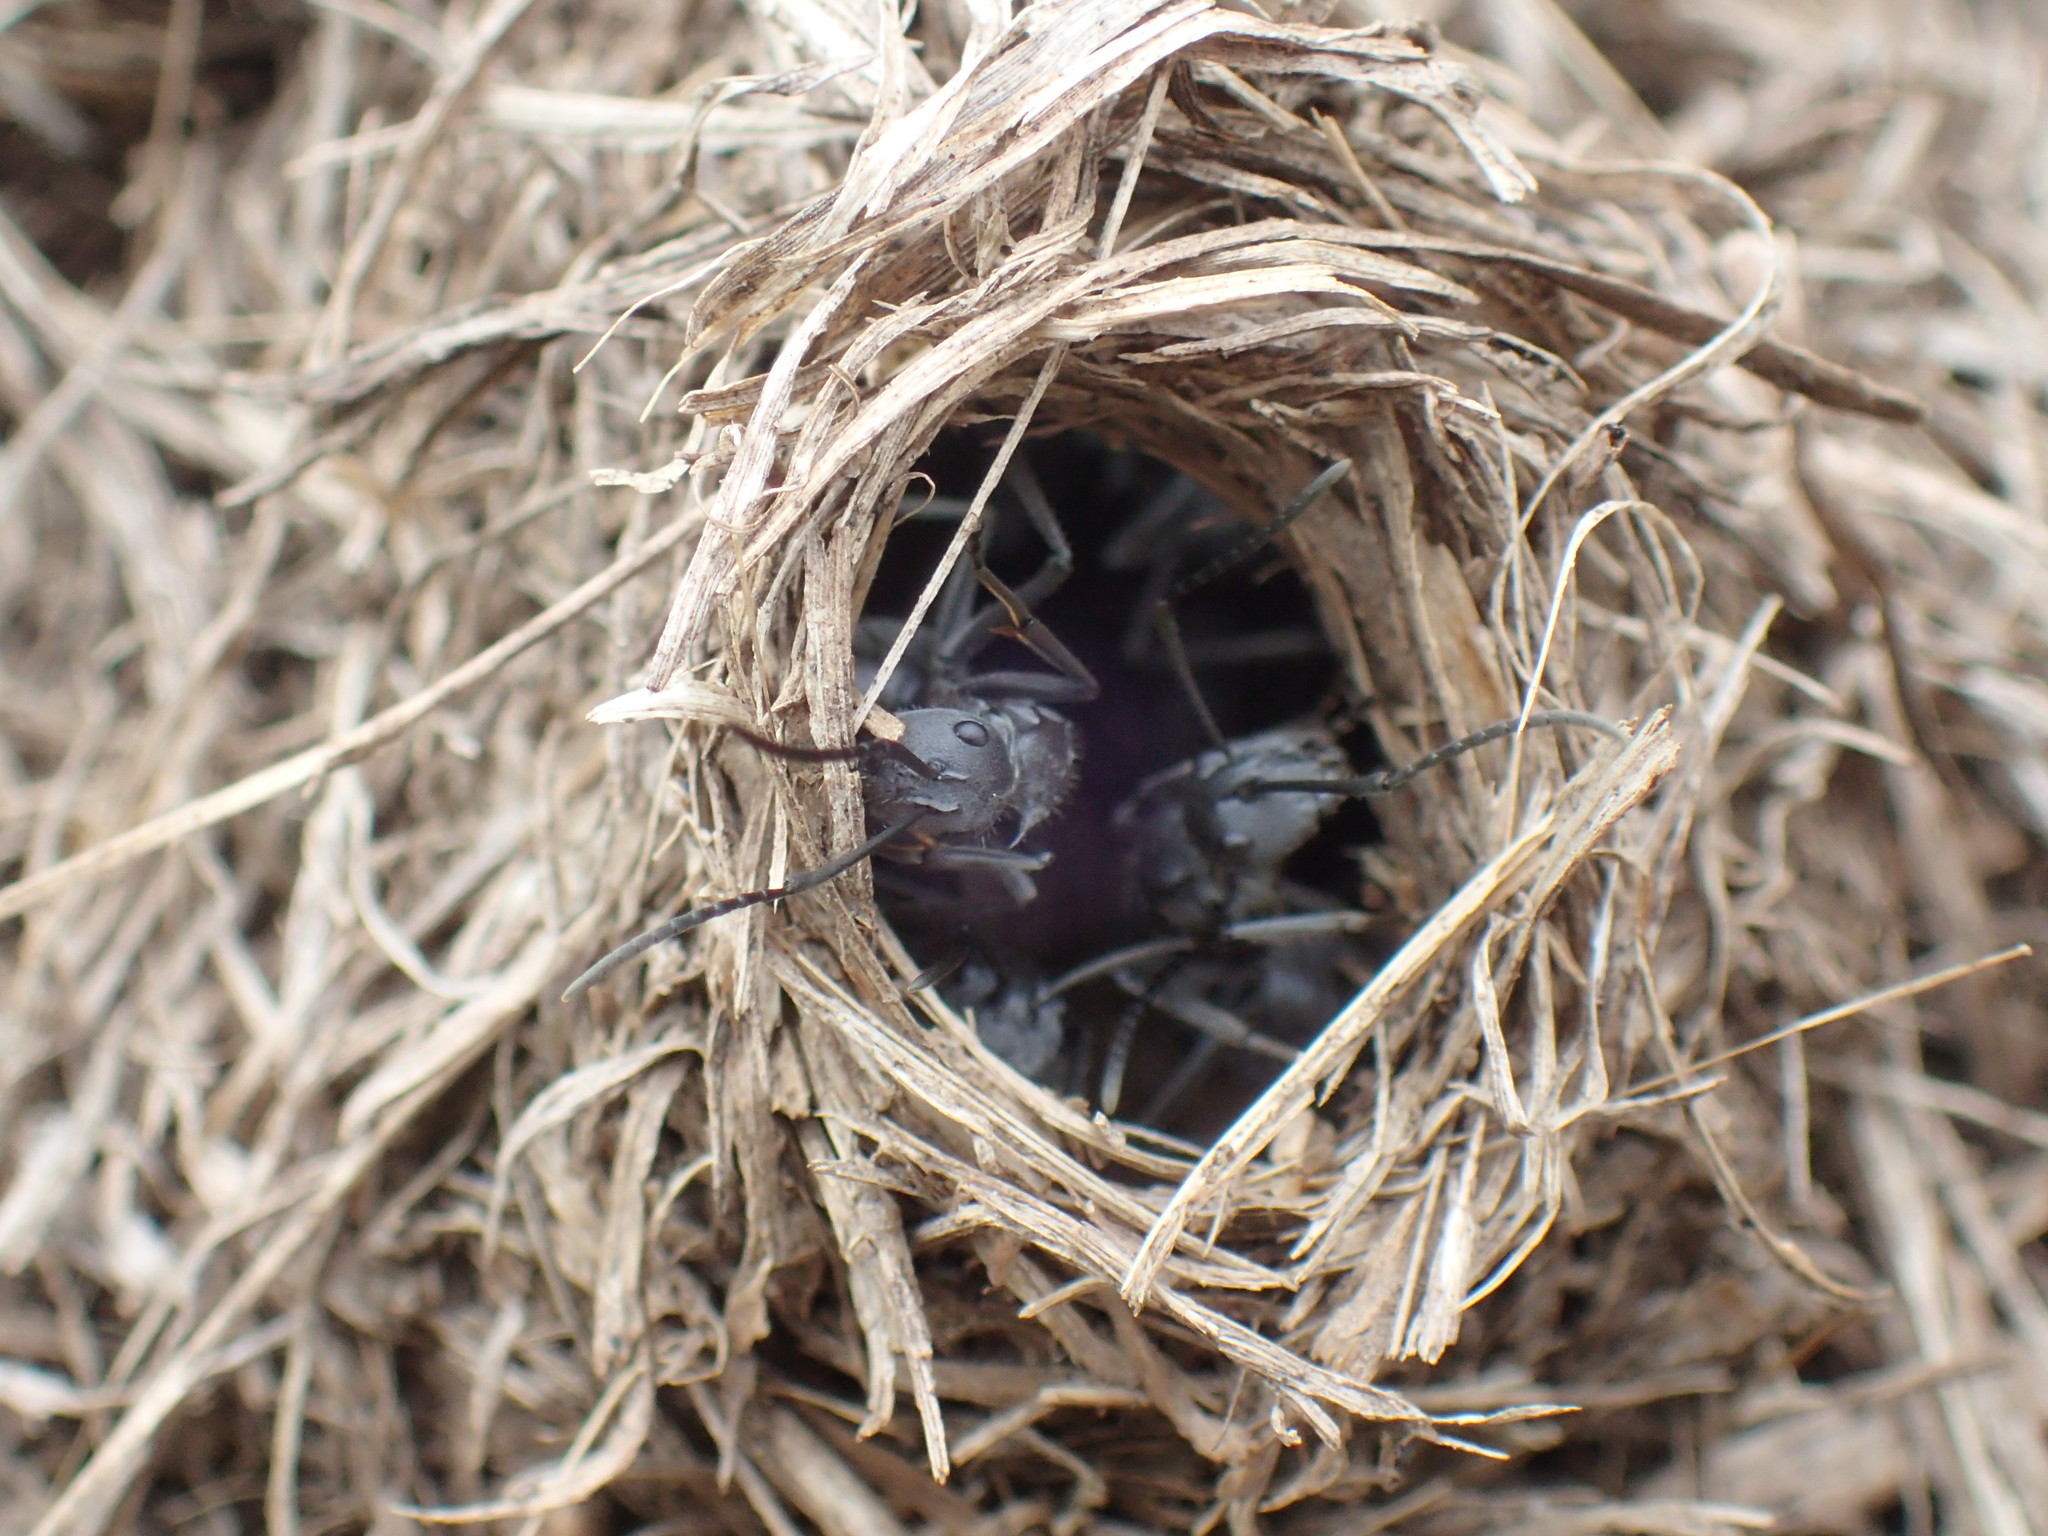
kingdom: Animalia
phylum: Arthropoda
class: Insecta
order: Hymenoptera
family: Formicidae
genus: Polyrhachis
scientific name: Polyrhachis schistacea
